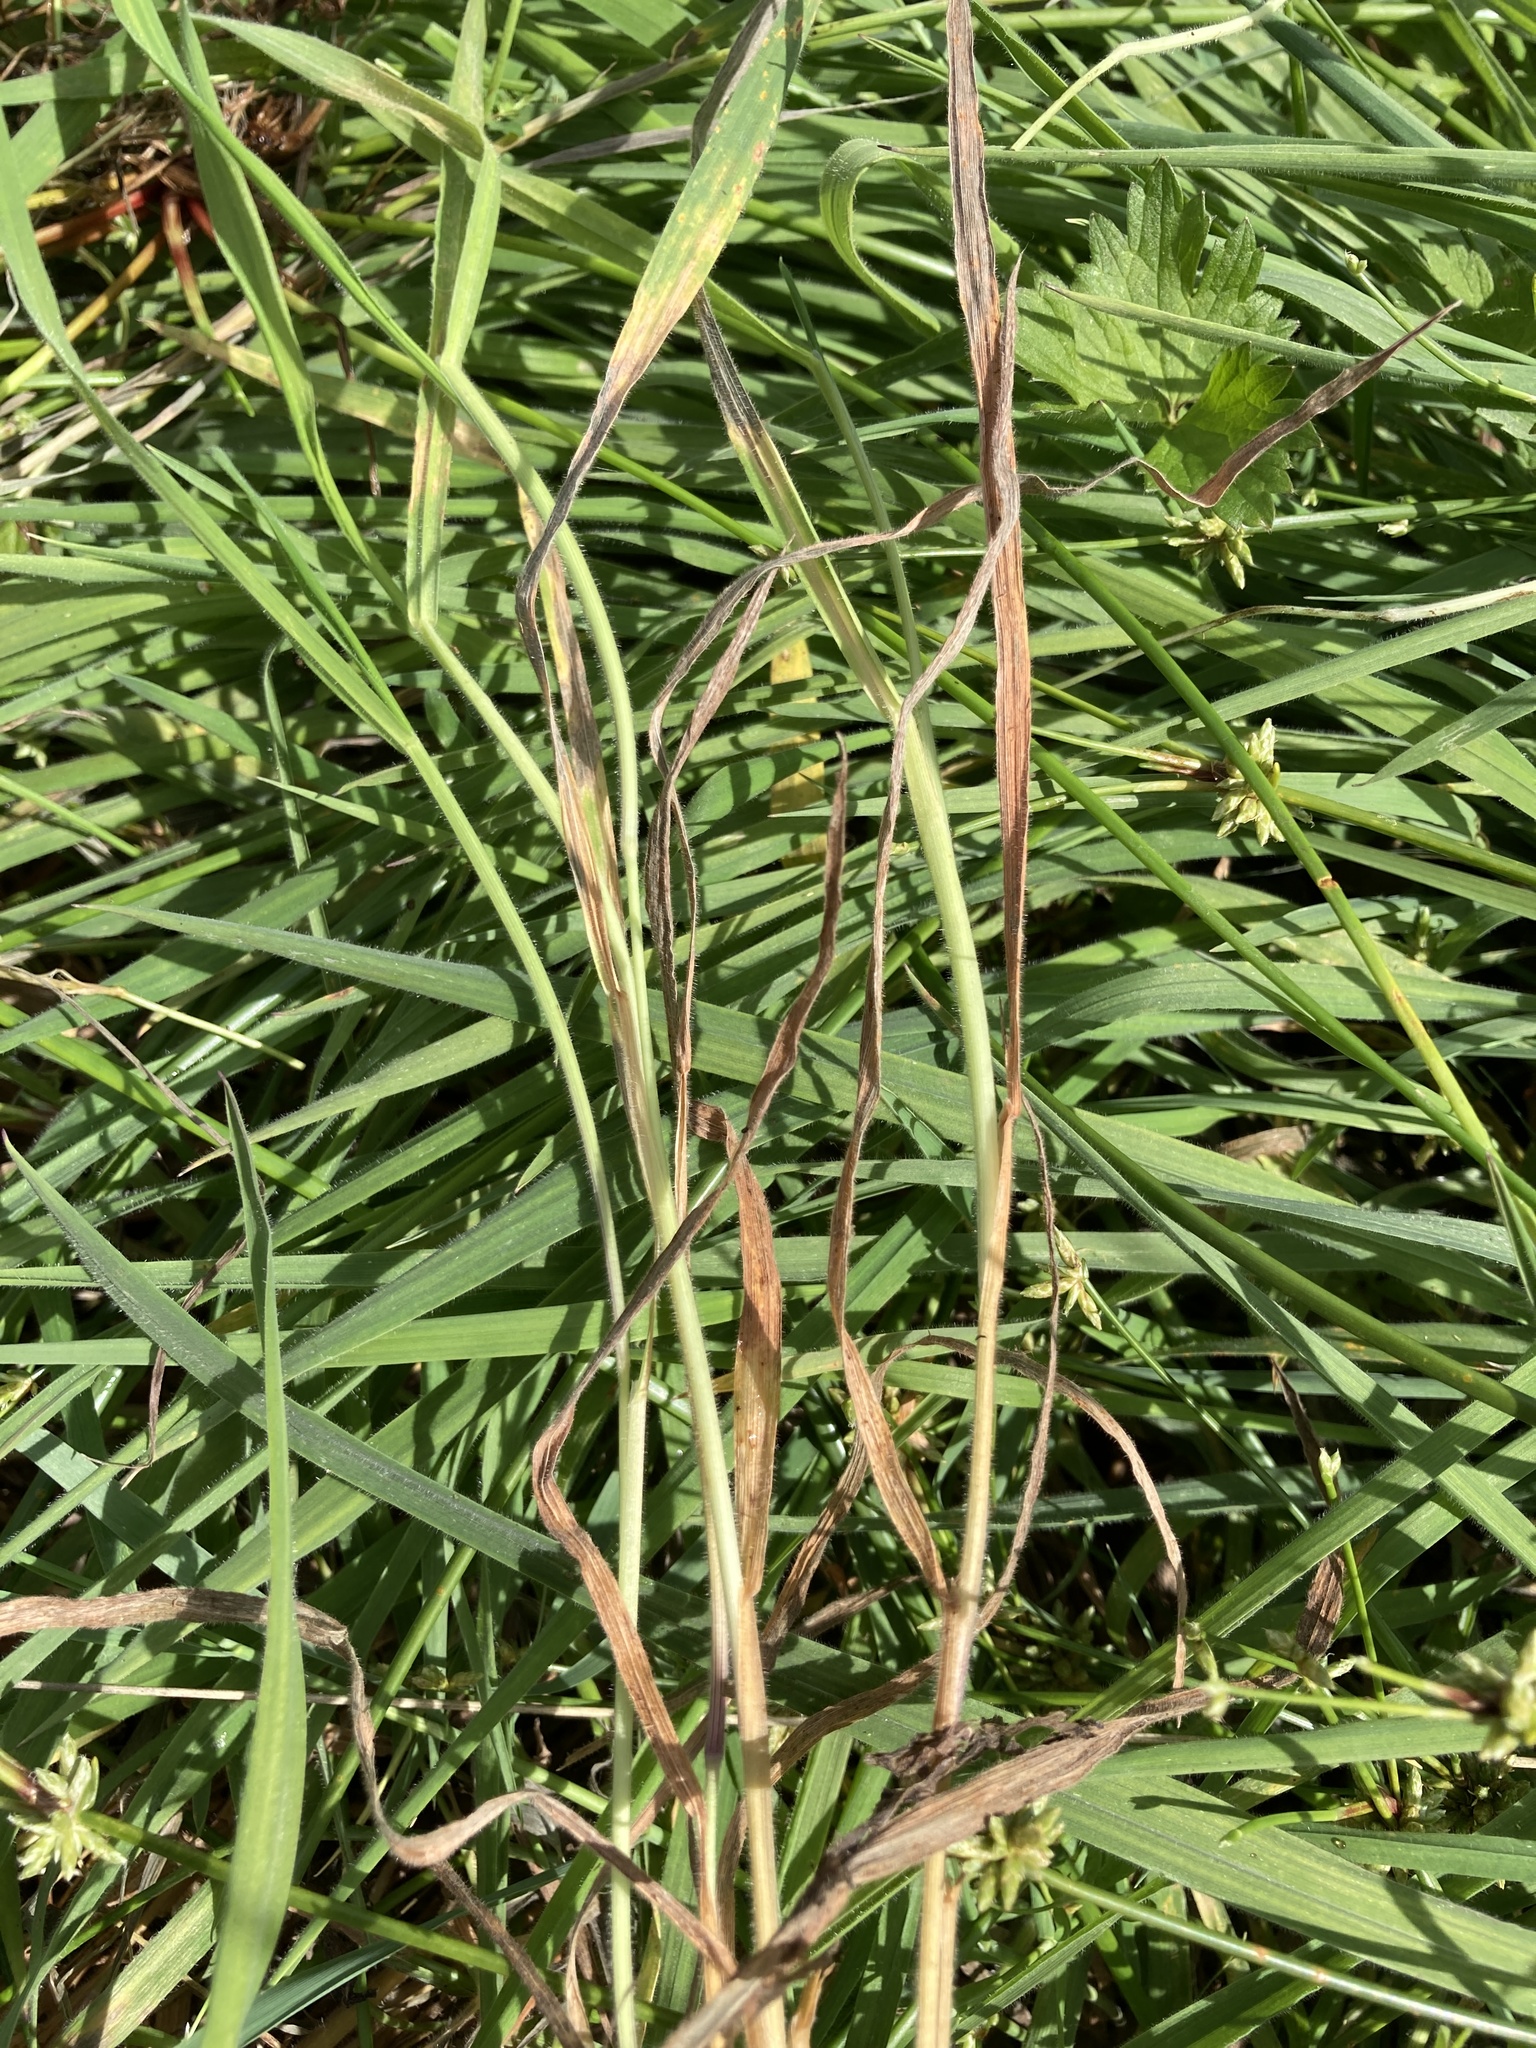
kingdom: Plantae
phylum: Tracheophyta
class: Liliopsida
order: Poales
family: Poaceae
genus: Holcus
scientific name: Holcus lanatus
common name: Yorkshire-fog
